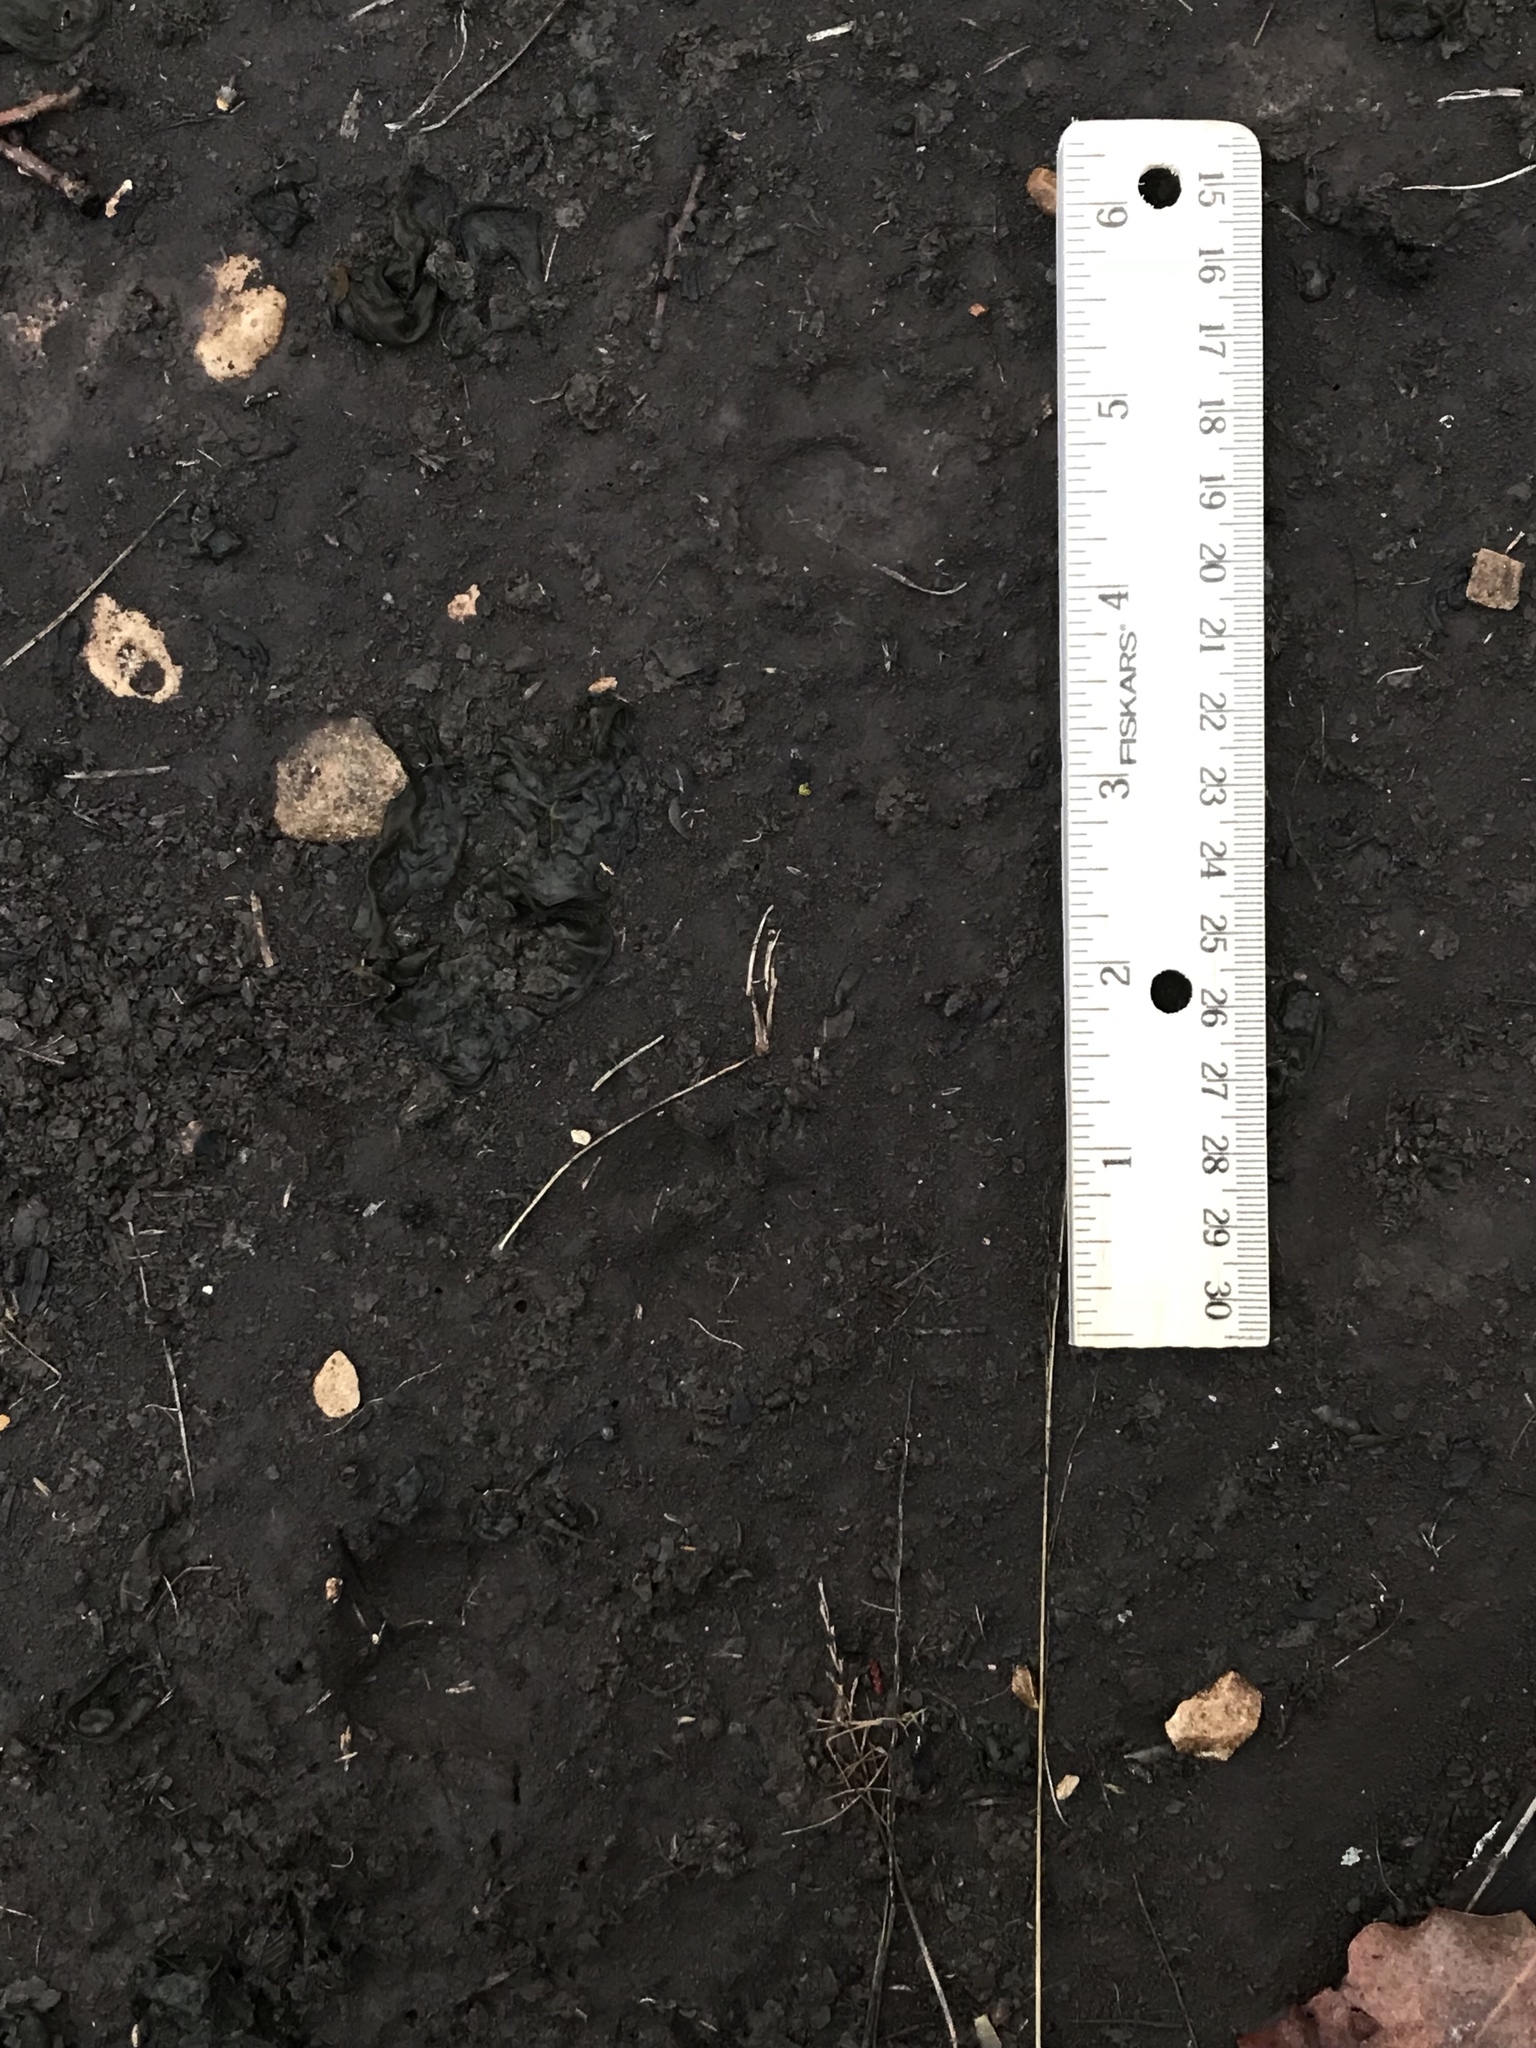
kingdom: Animalia
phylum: Chordata
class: Mammalia
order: Carnivora
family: Mephitidae
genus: Mephitis
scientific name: Mephitis mephitis
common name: Striped skunk
